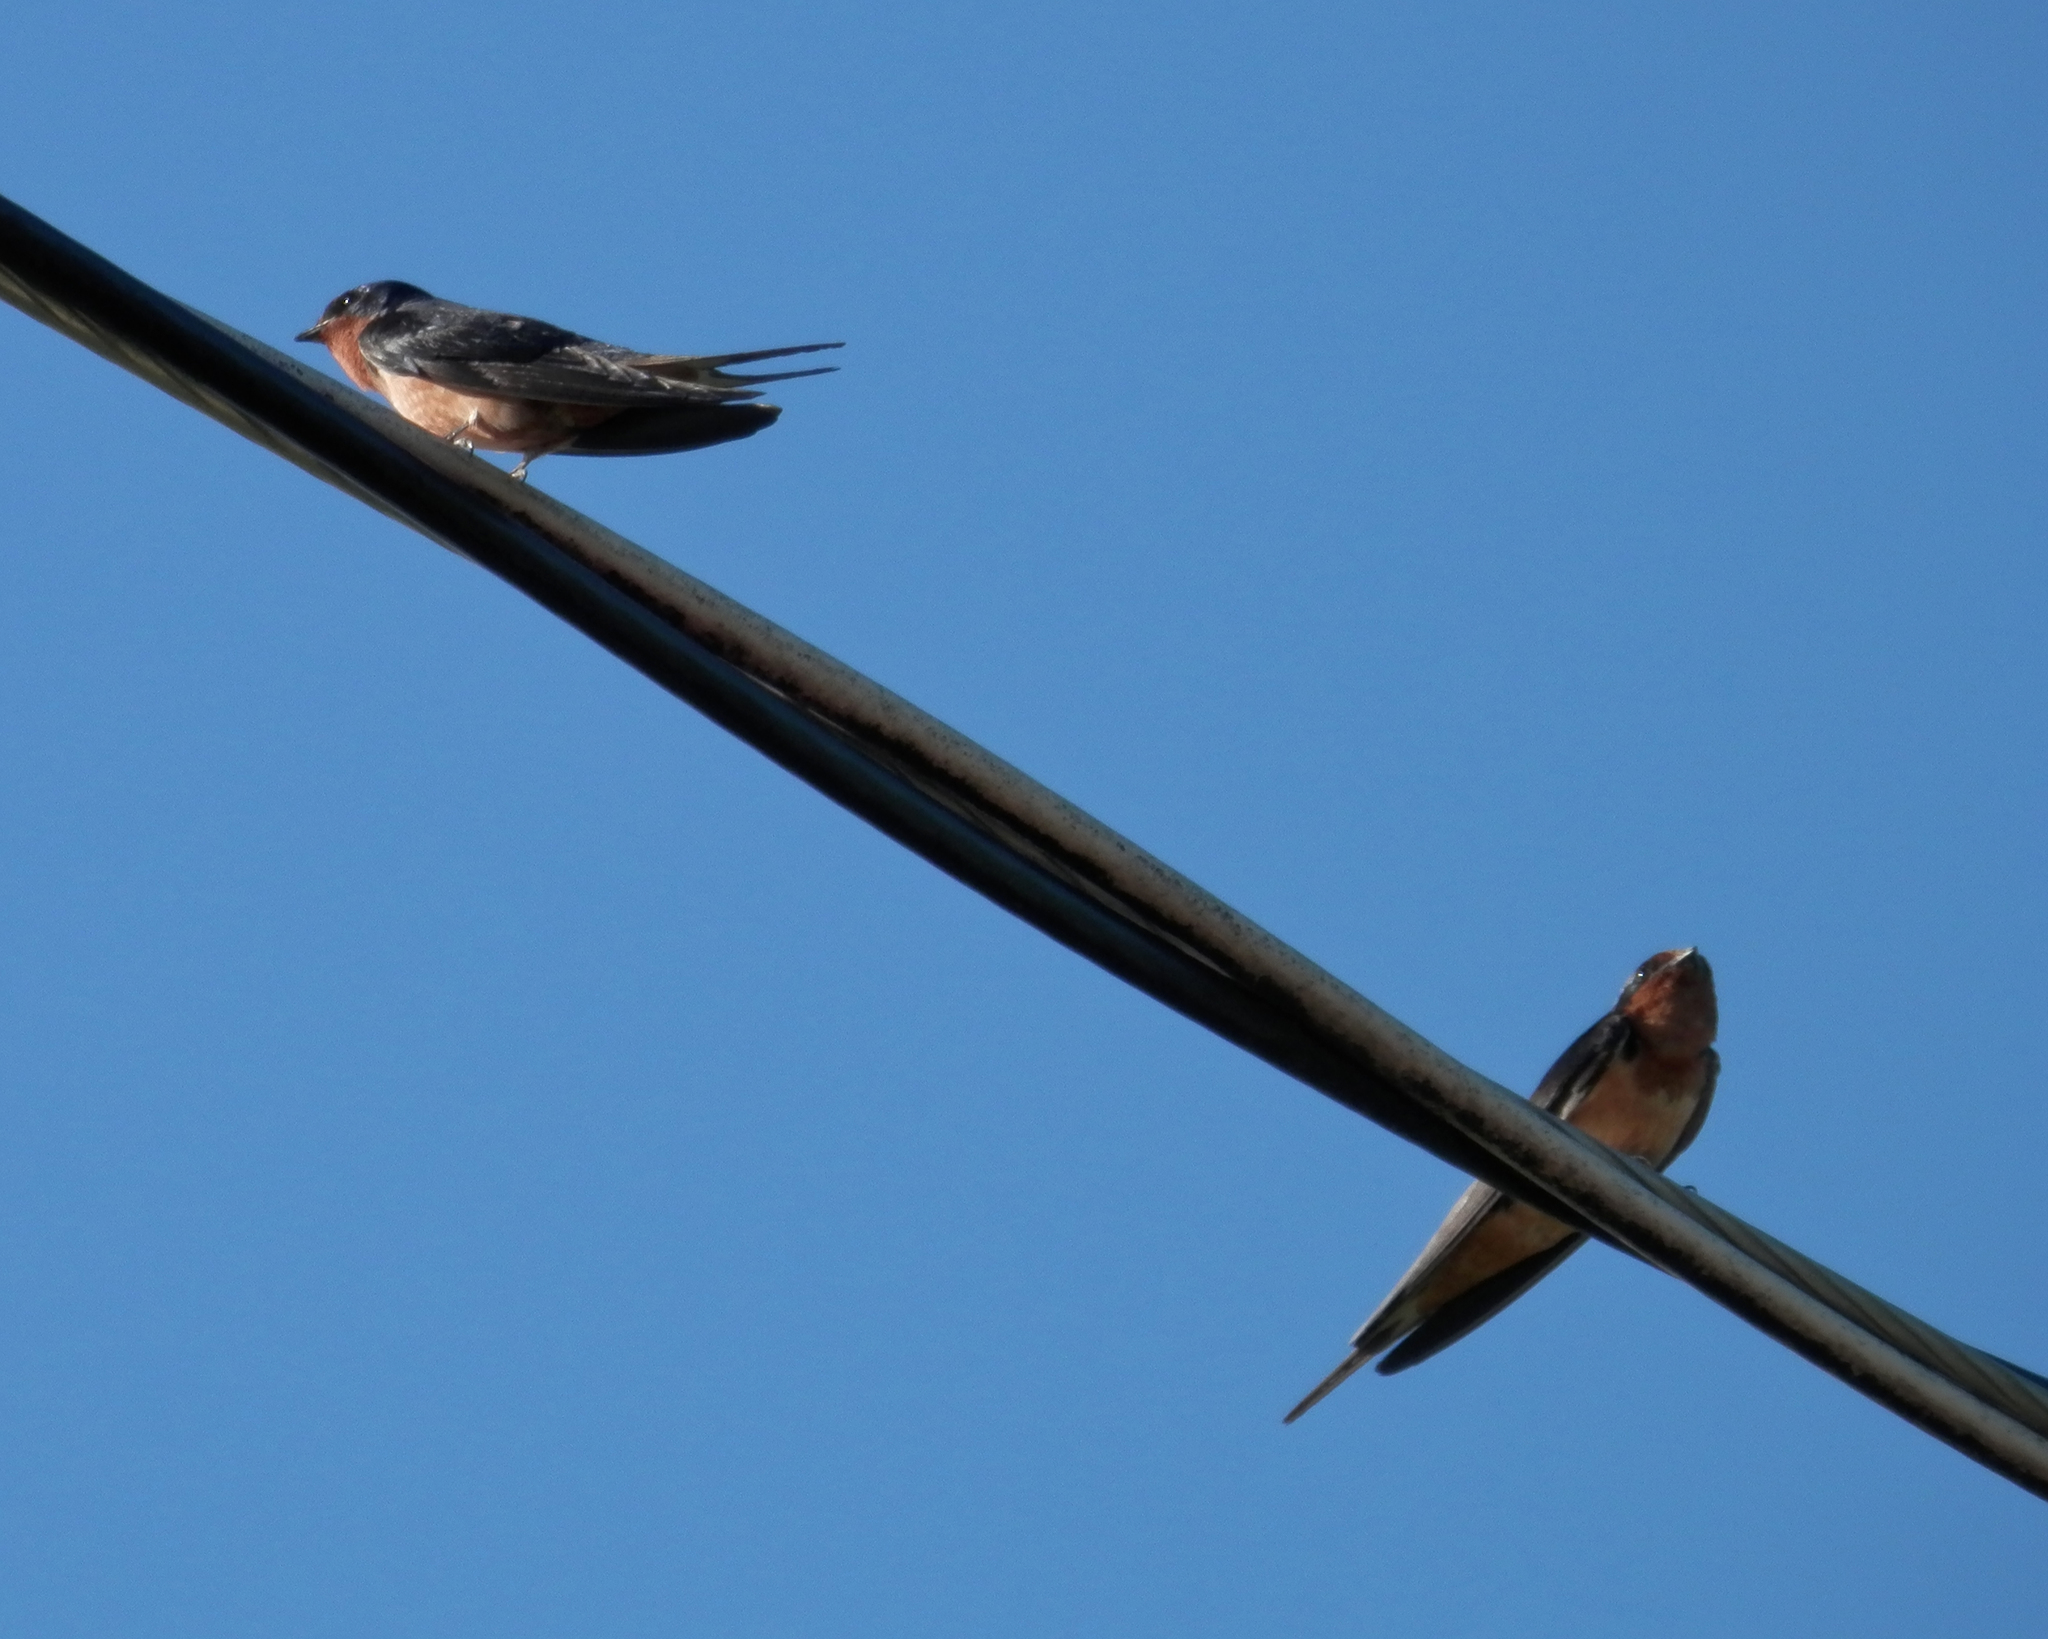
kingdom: Animalia
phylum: Chordata
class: Aves
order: Passeriformes
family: Hirundinidae
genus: Hirundo
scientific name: Hirundo rustica
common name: Barn swallow
